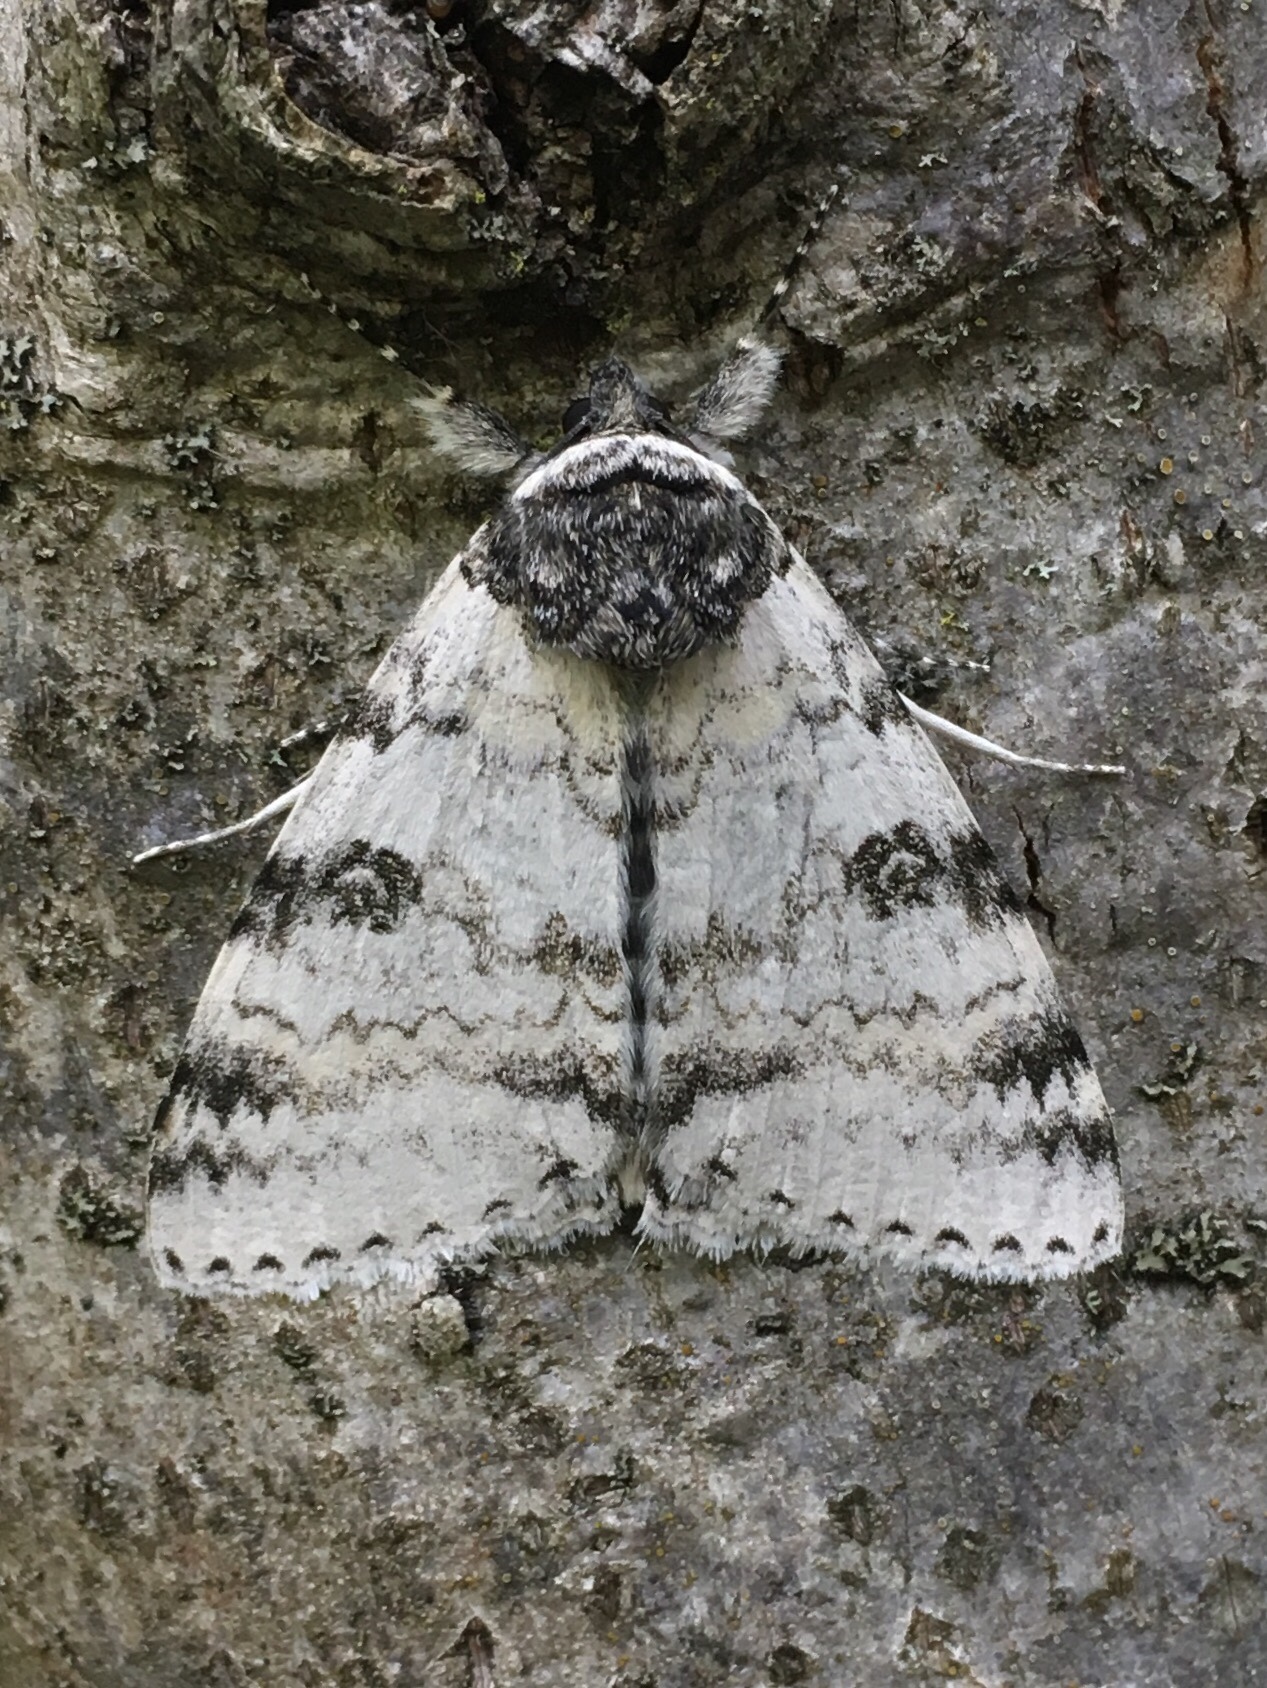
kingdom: Animalia
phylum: Arthropoda
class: Insecta
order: Lepidoptera
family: Erebidae
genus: Catocala
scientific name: Catocala relicta
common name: White underwing
